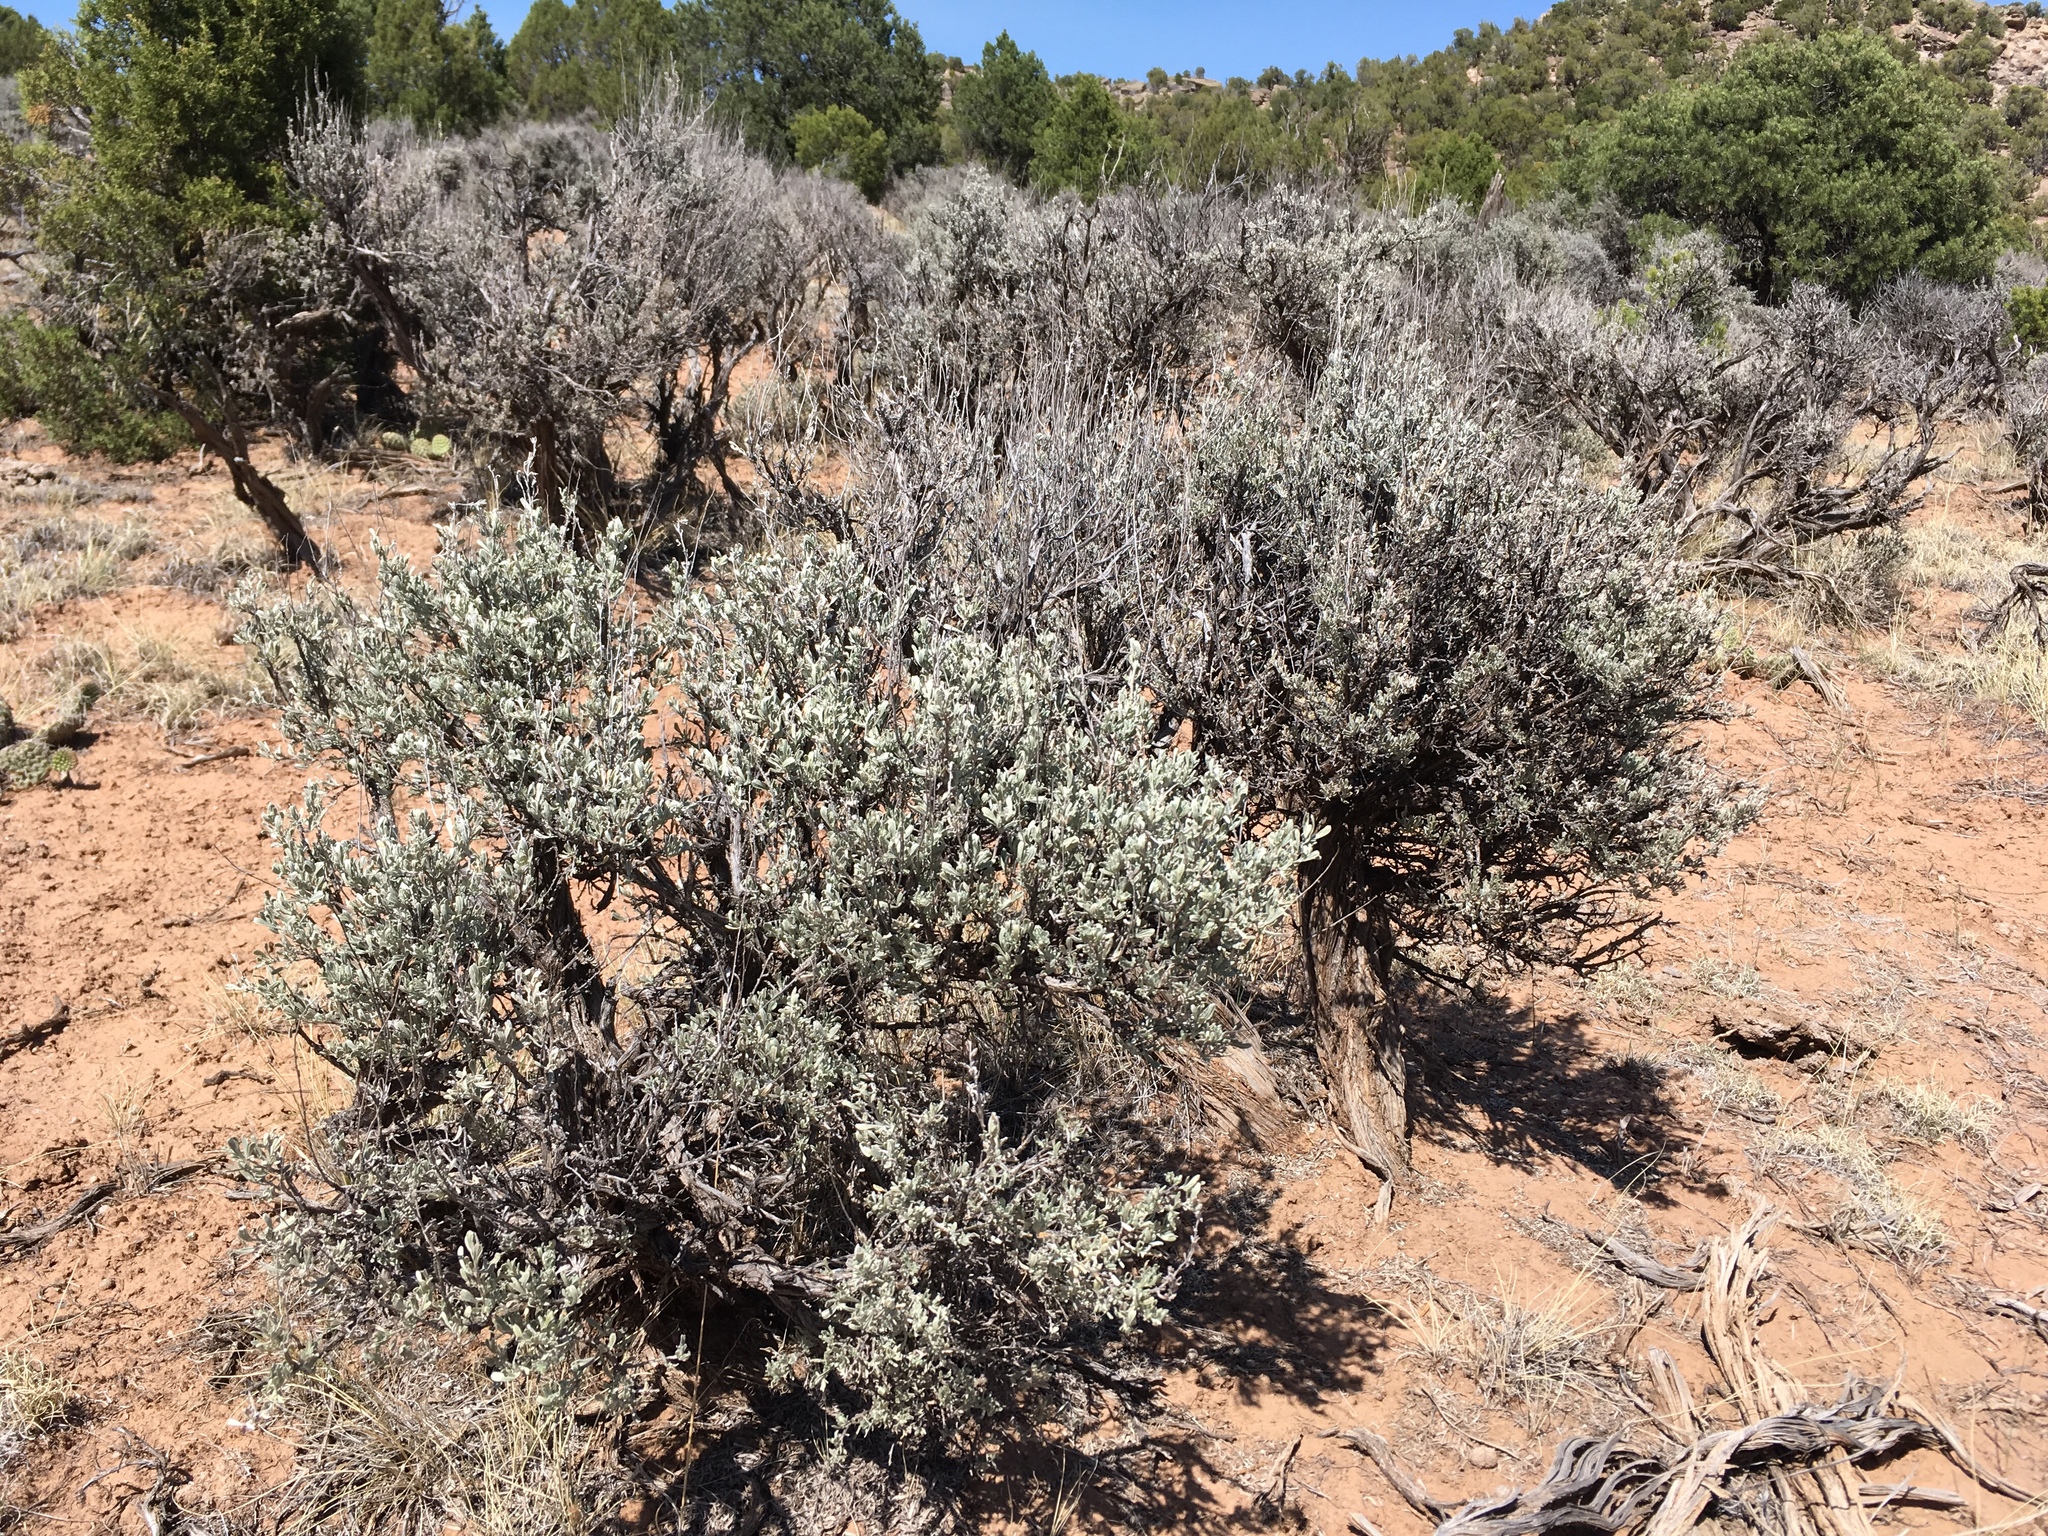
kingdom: Plantae
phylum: Tracheophyta
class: Magnoliopsida
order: Asterales
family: Asteraceae
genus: Artemisia
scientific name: Artemisia tridentata
